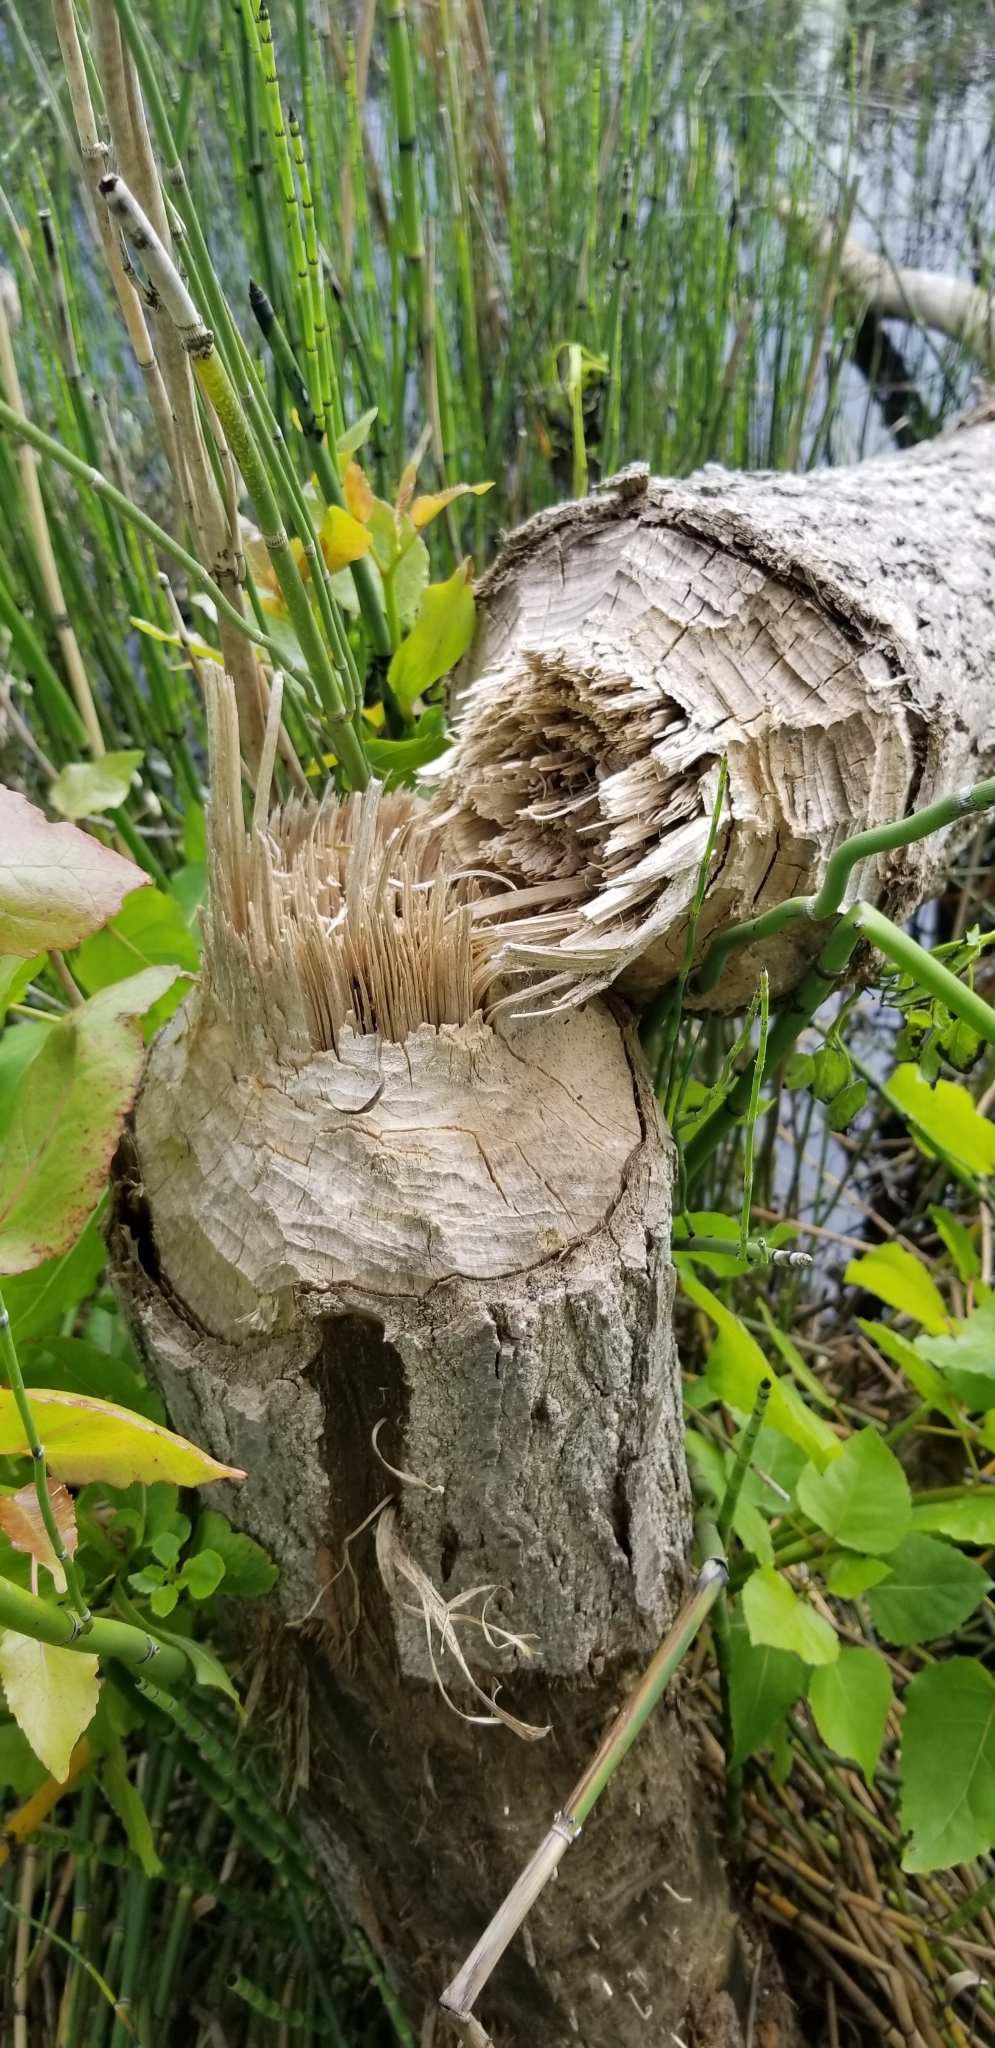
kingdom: Animalia
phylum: Chordata
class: Mammalia
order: Rodentia
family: Castoridae
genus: Castor
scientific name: Castor canadensis
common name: American beaver
